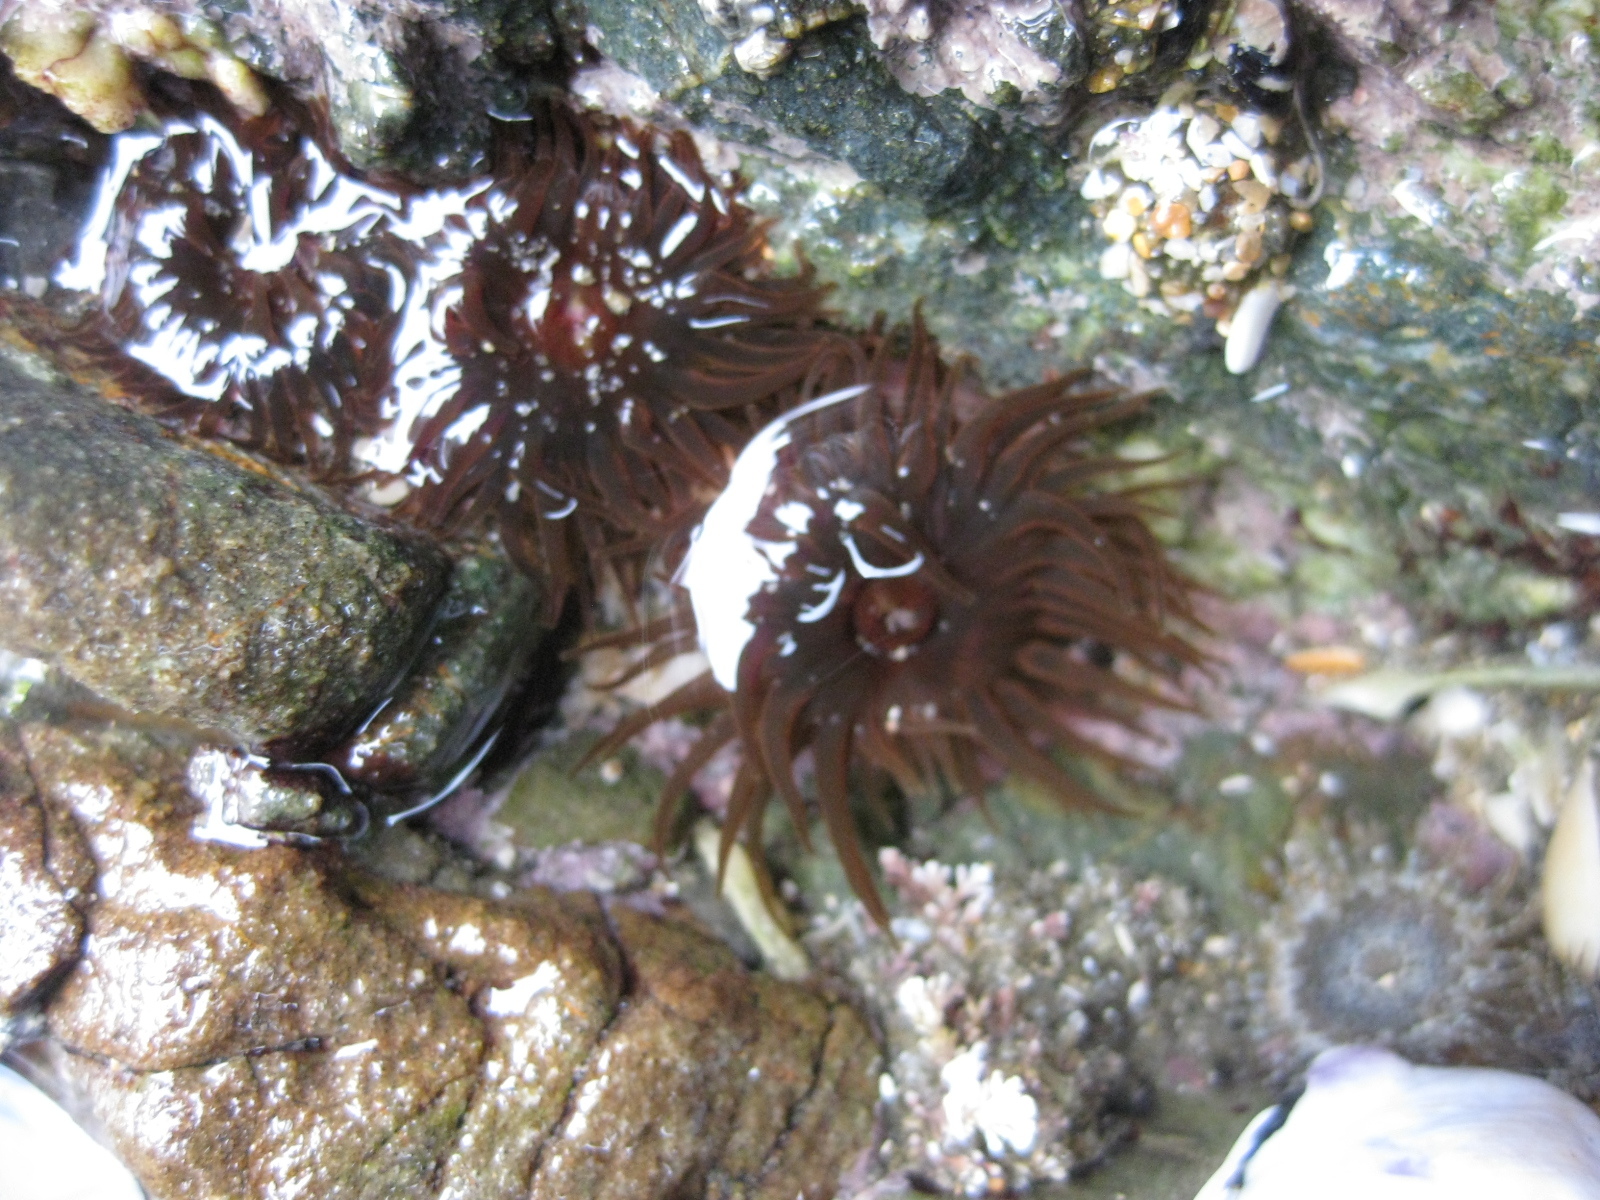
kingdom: Animalia
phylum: Cnidaria
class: Anthozoa
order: Actiniaria
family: Actiniidae
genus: Isactinia
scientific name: Isactinia olivacea
